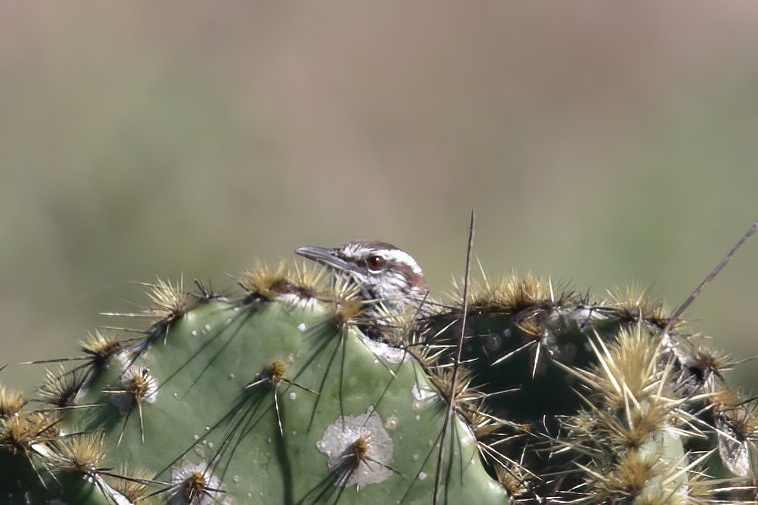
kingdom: Animalia
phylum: Chordata
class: Aves
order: Passeriformes
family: Troglodytidae
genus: Campylorhynchus
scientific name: Campylorhynchus brunneicapillus
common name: Cactus wren
